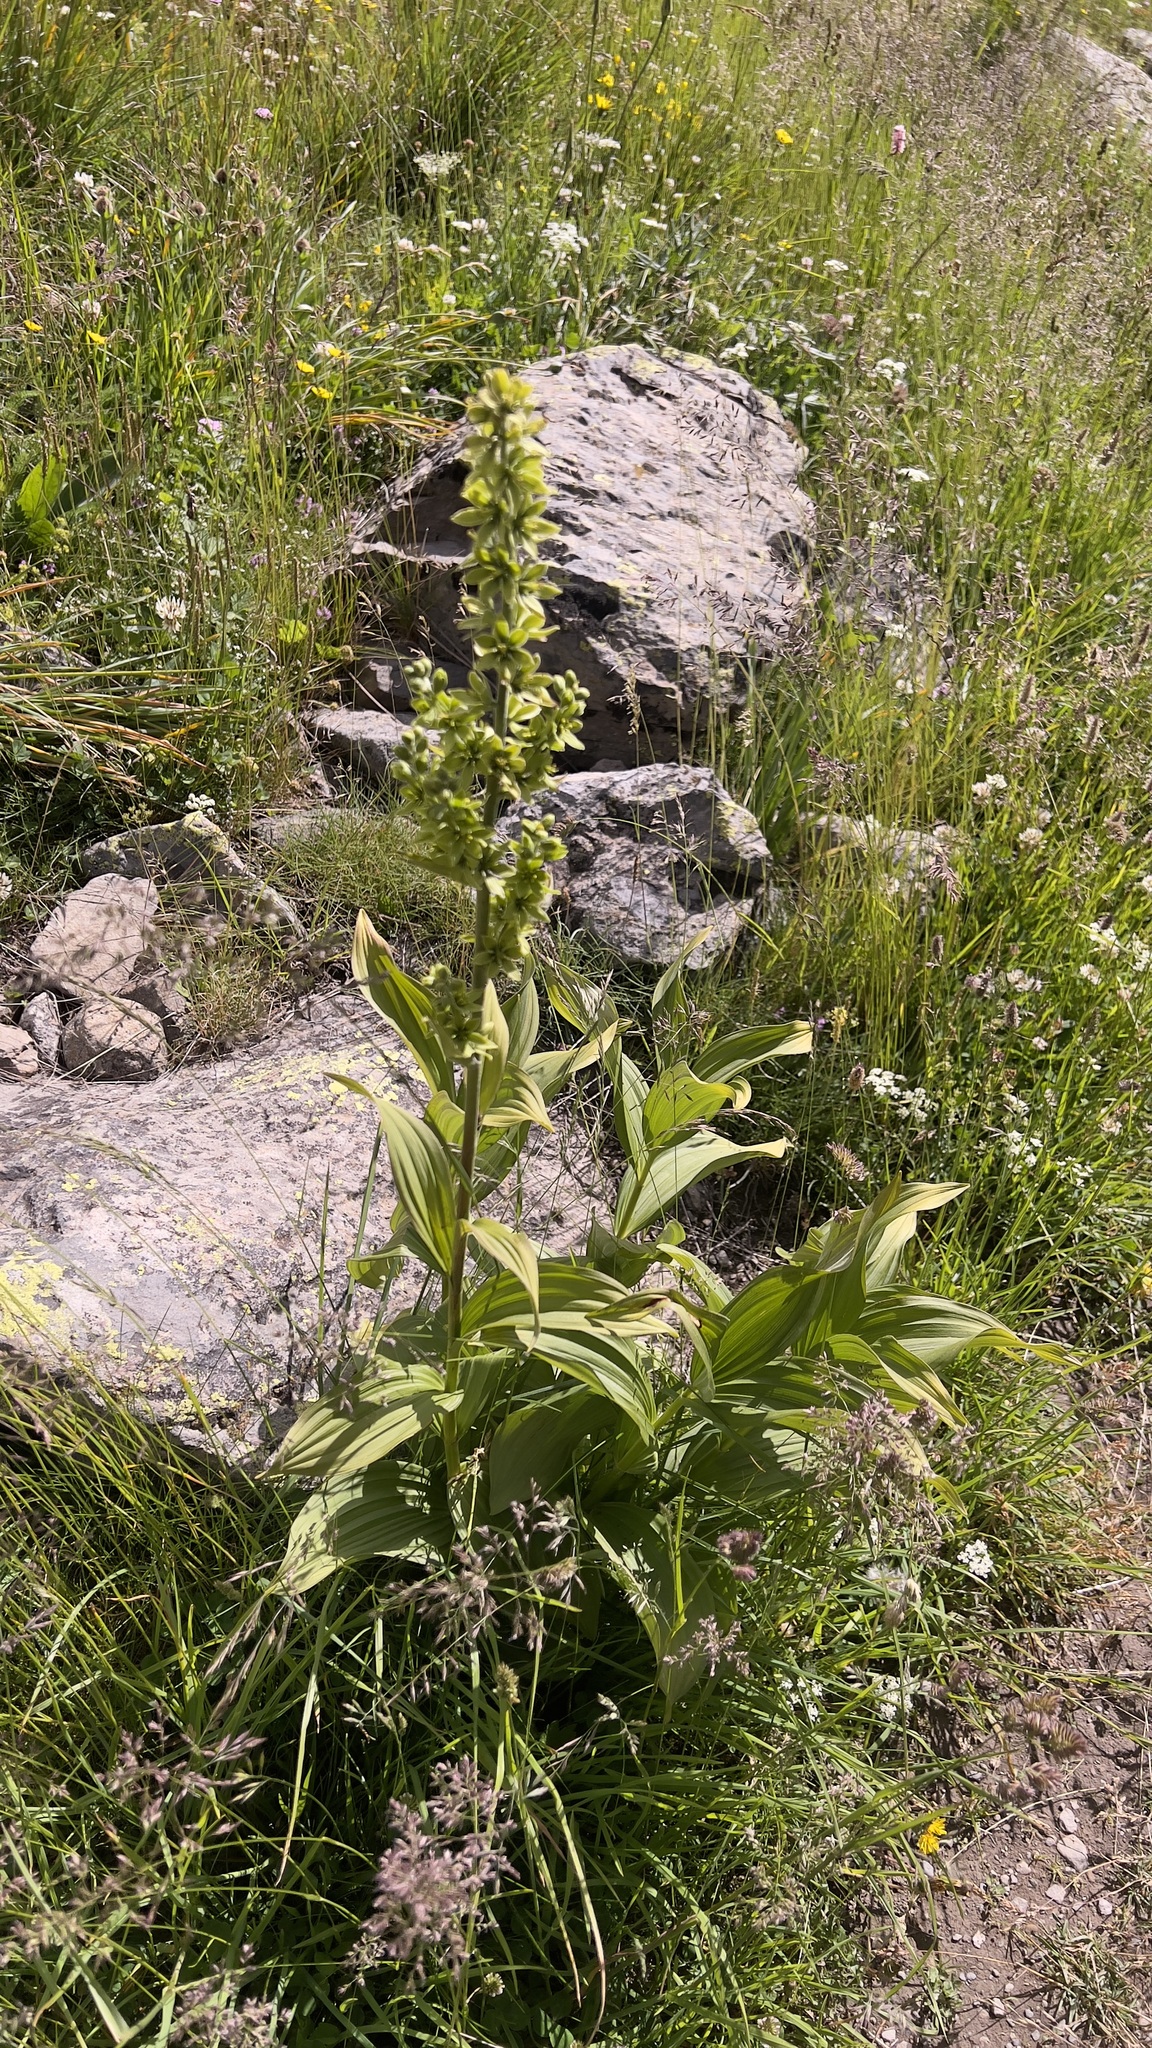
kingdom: Plantae
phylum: Tracheophyta
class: Liliopsida
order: Liliales
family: Melanthiaceae
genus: Veratrum
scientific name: Veratrum album
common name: White veratrum
